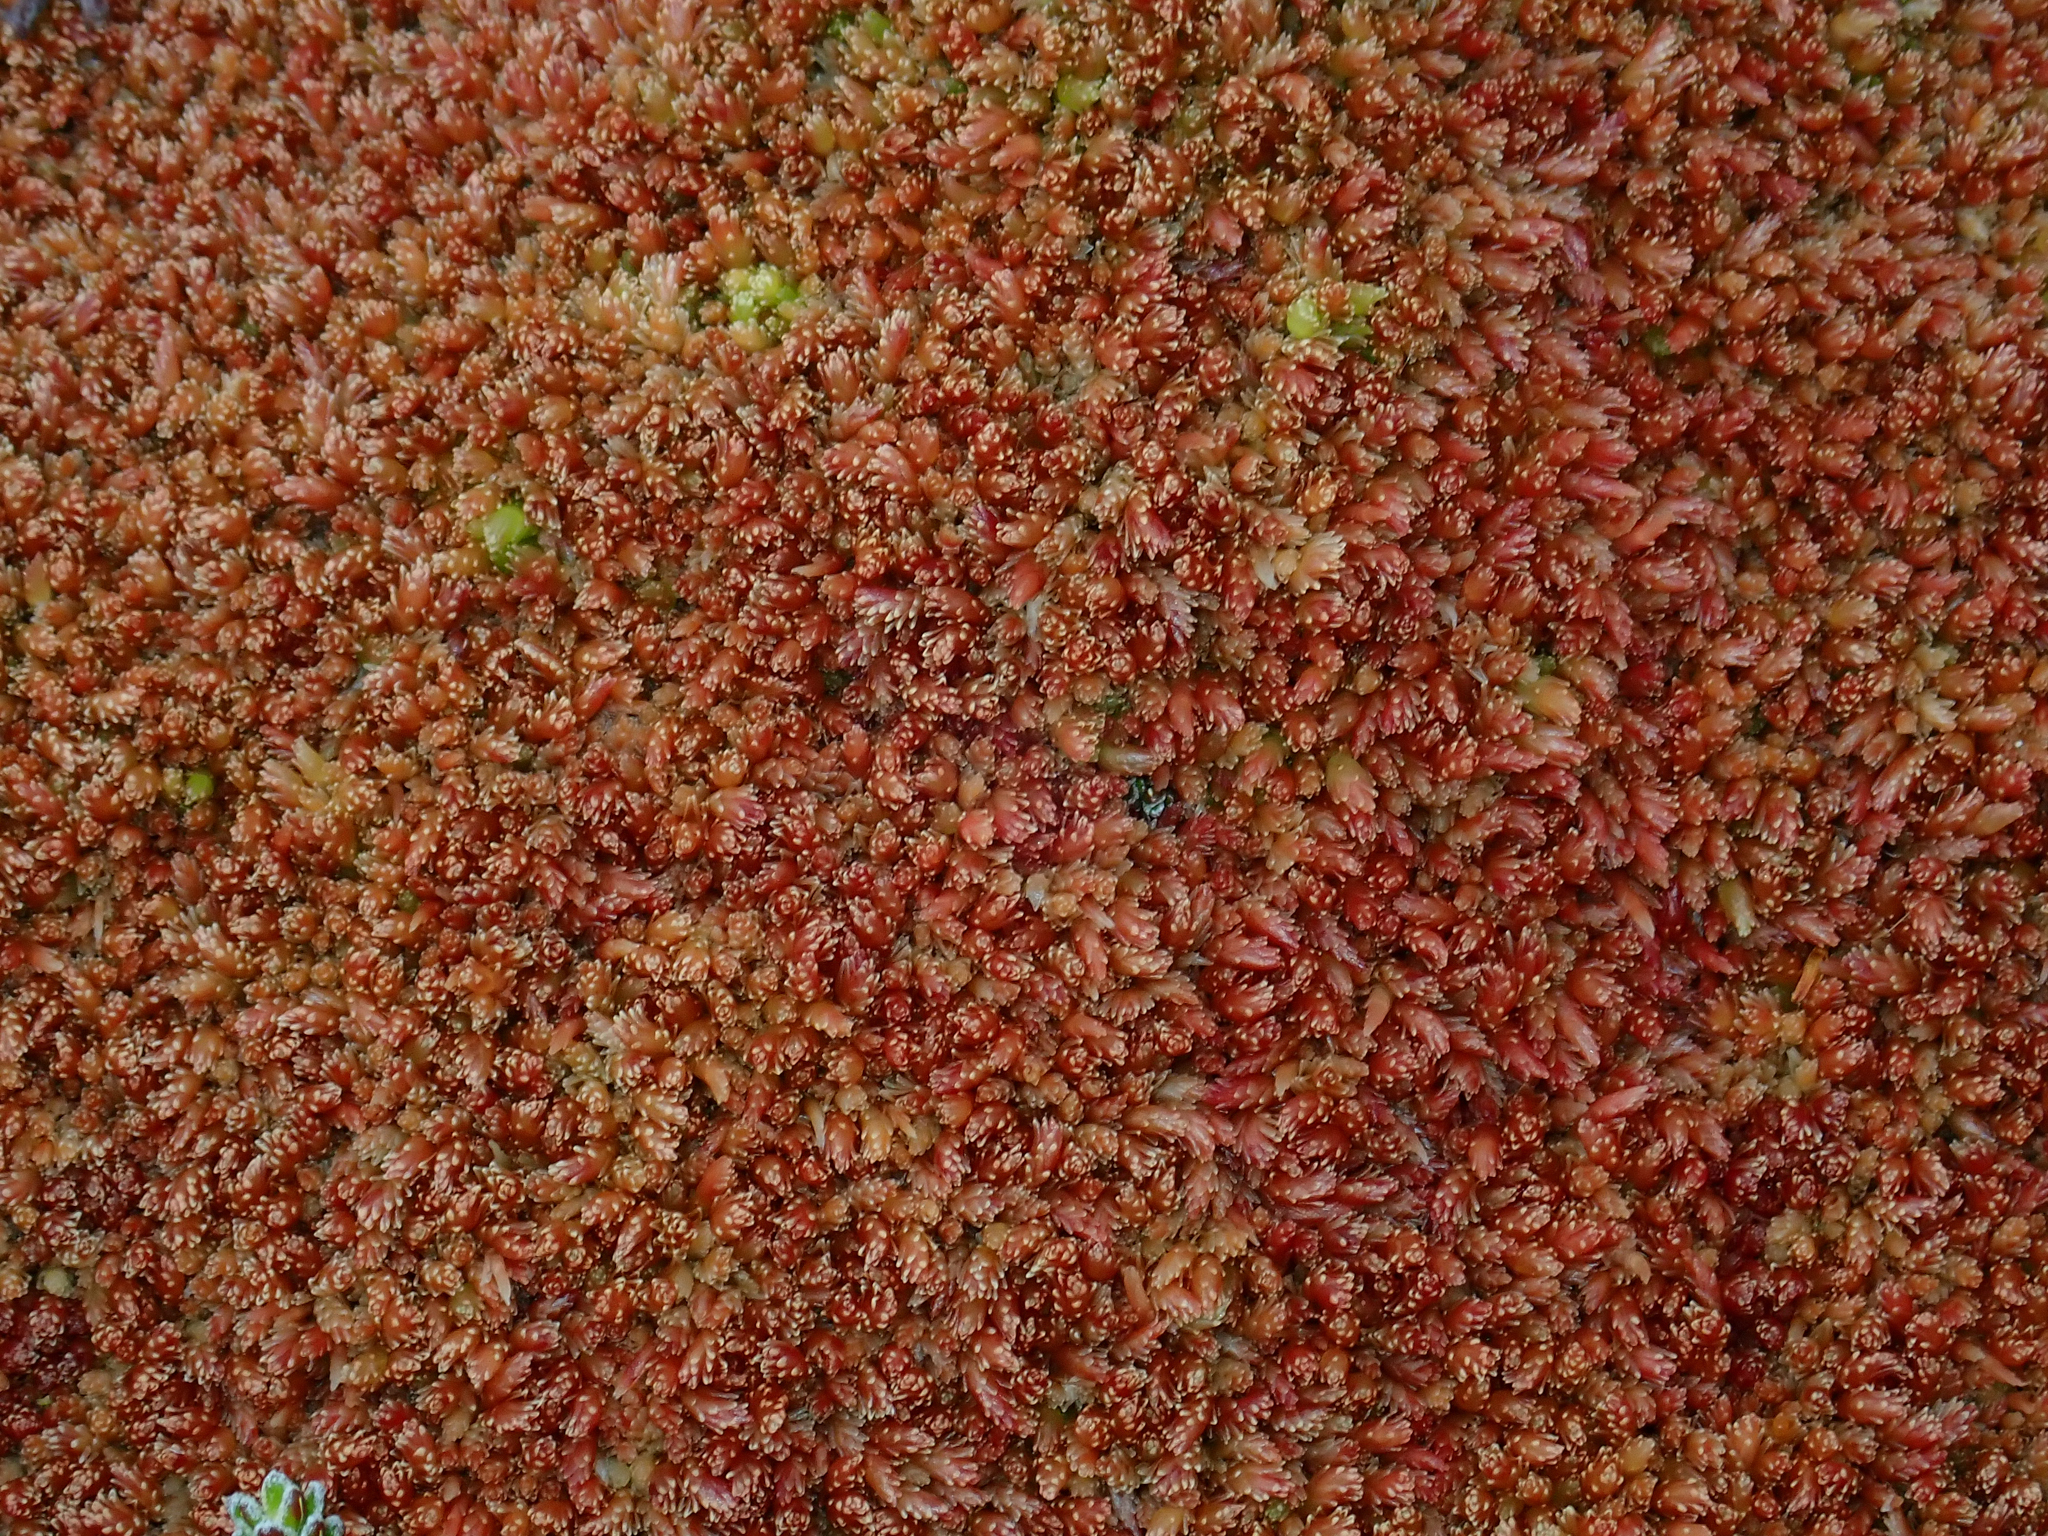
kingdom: Plantae
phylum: Bryophyta
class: Sphagnopsida
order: Sphagnales
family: Sphagnaceae
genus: Sphagnum
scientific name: Sphagnum magellanicum
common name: Magellan's peat moss
